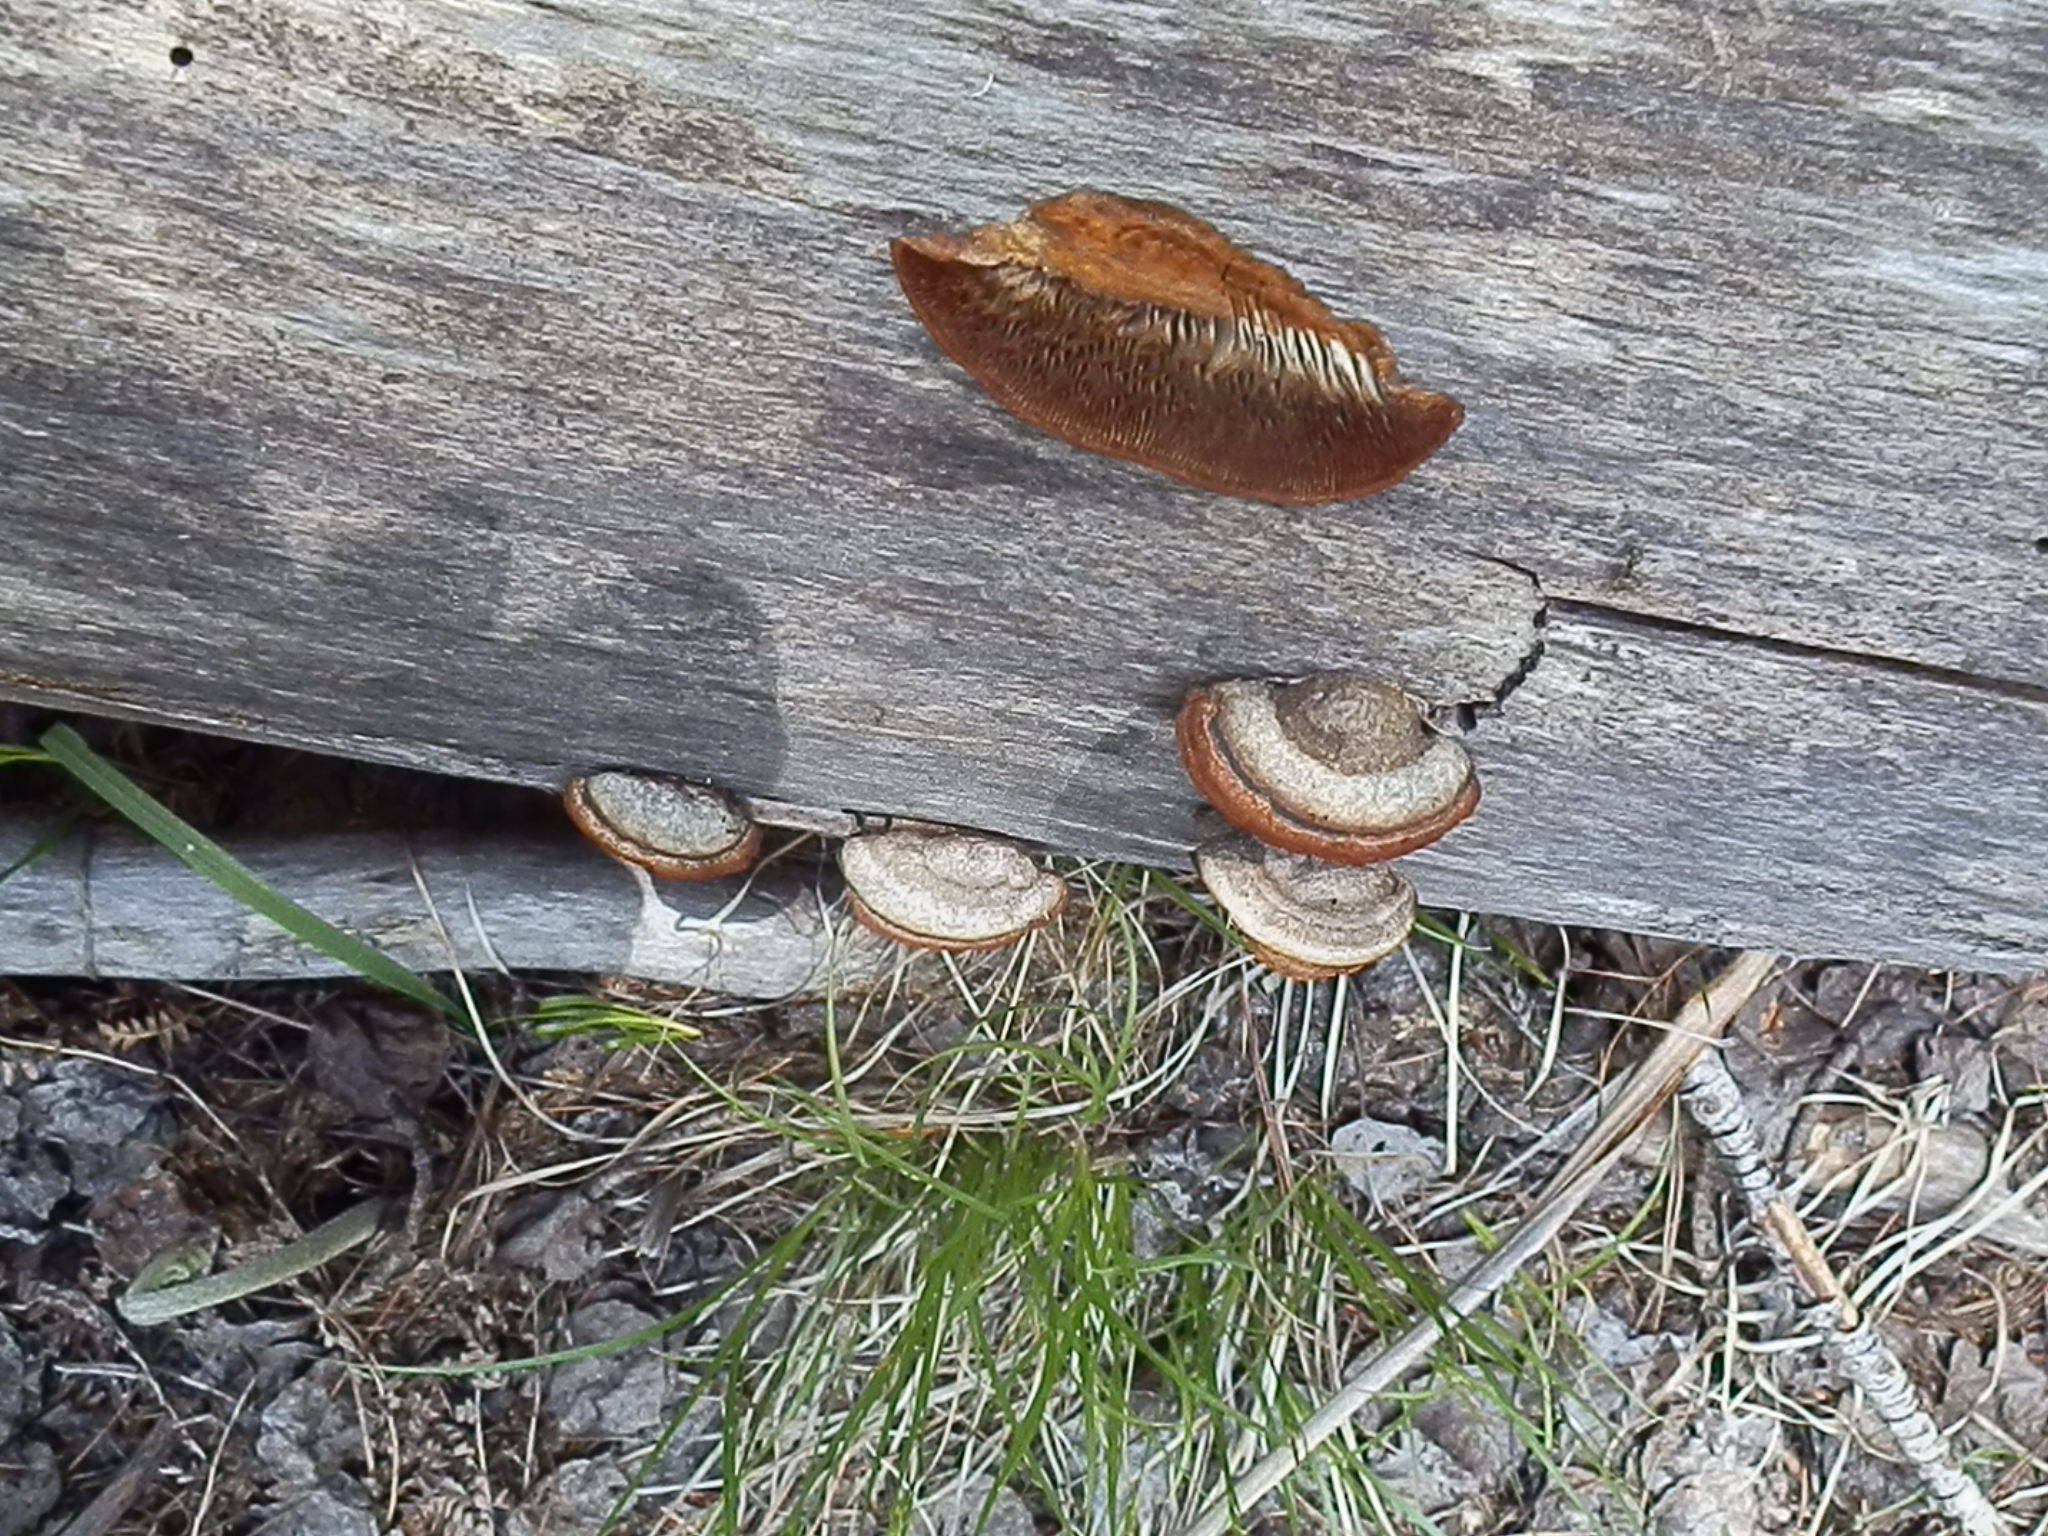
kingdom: Fungi
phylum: Basidiomycota
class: Agaricomycetes
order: Gloeophyllales
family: Gloeophyllaceae
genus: Gloeophyllum
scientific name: Gloeophyllum sepiarium
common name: Conifer mazegill
